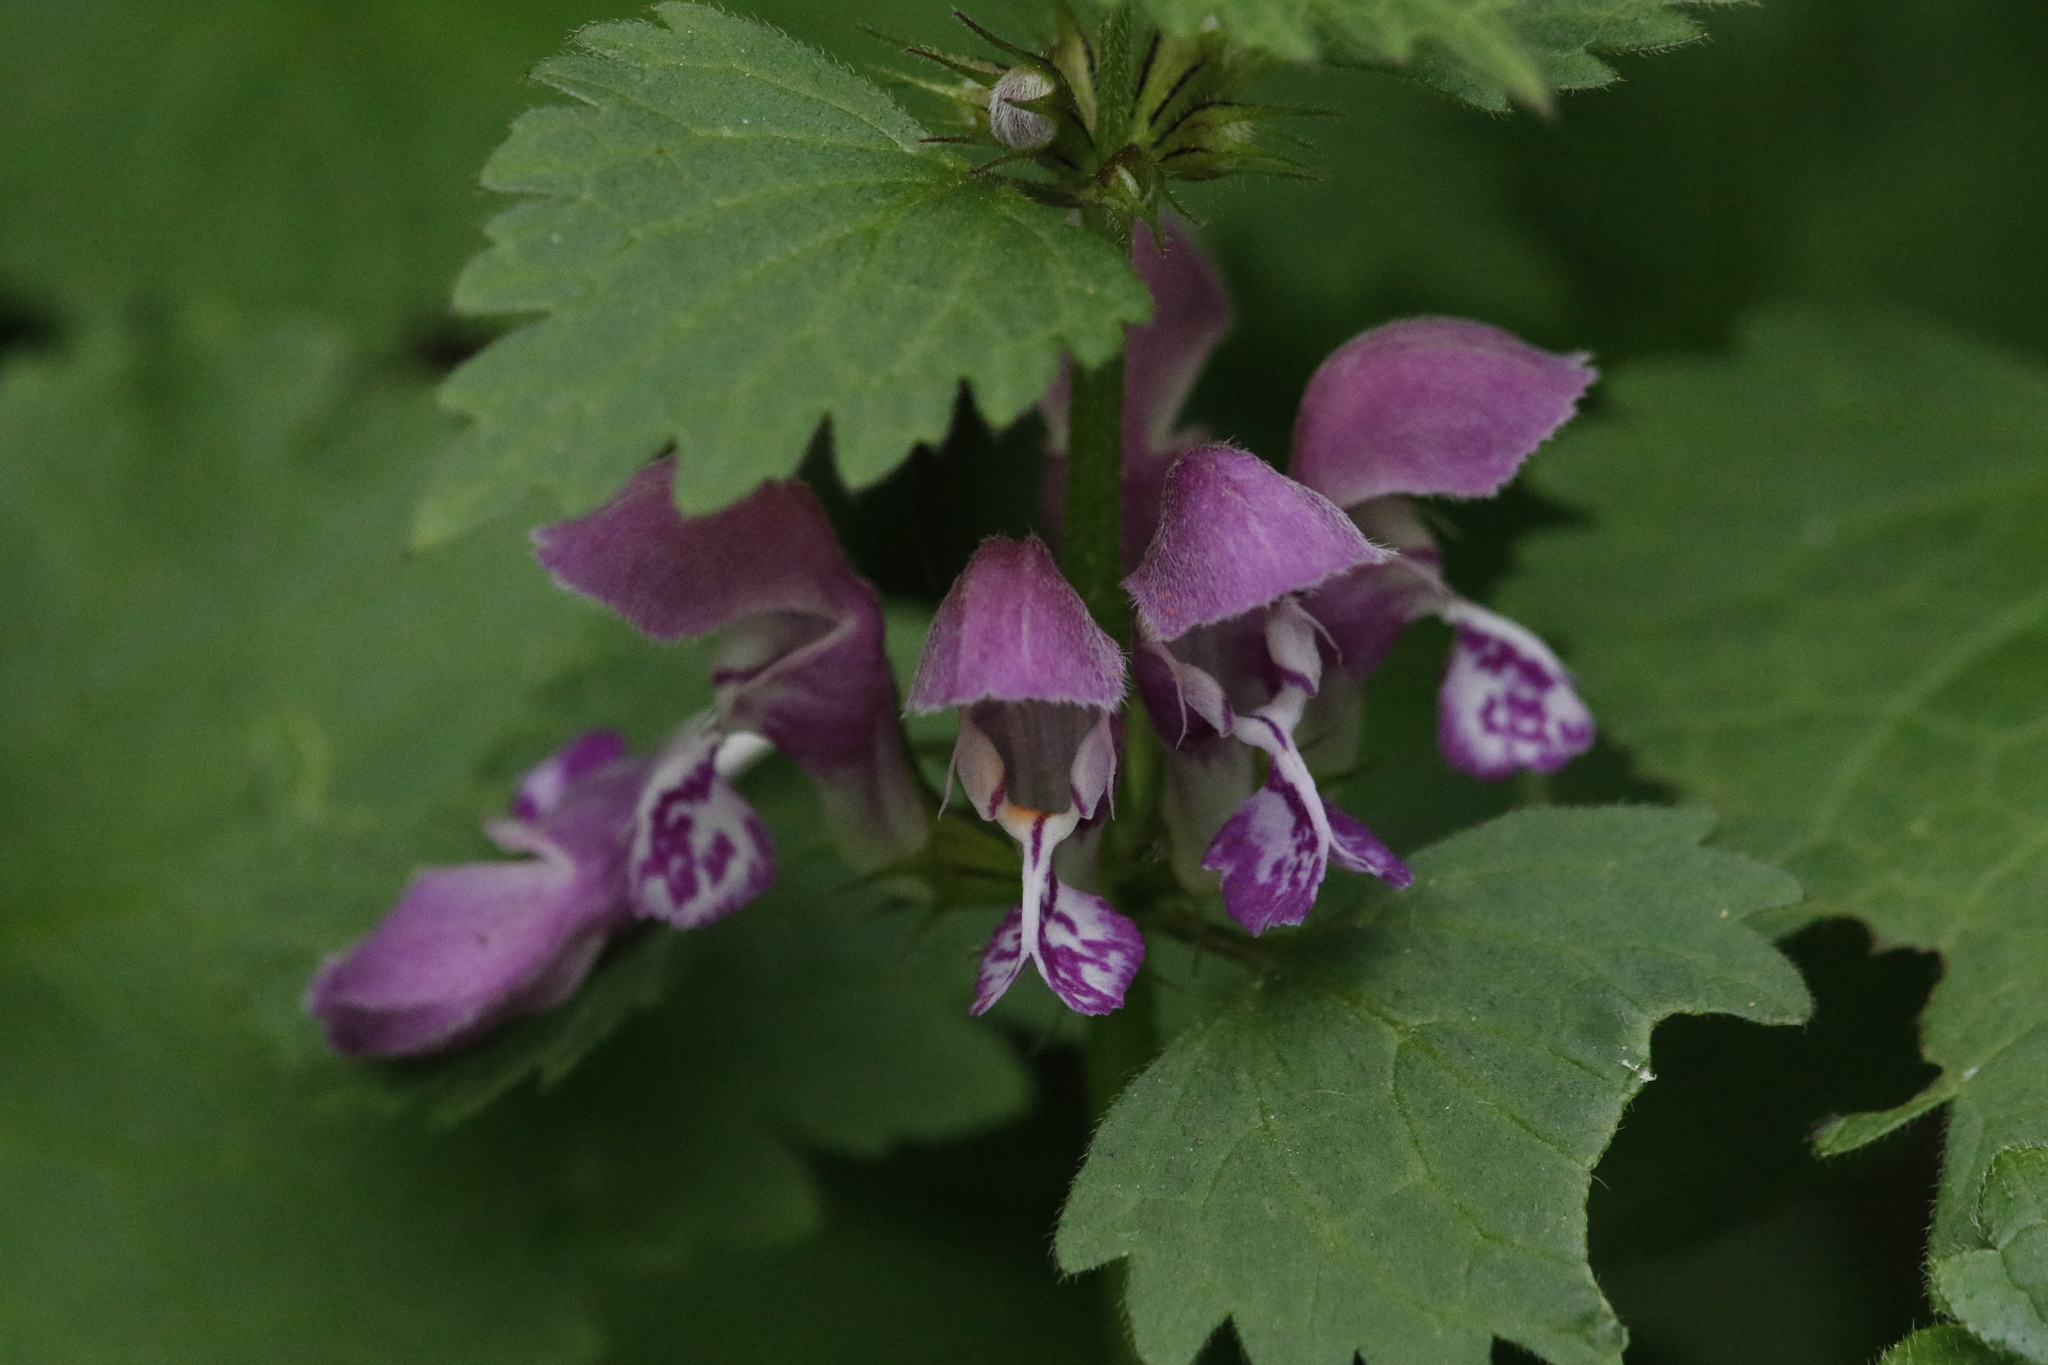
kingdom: Plantae
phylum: Tracheophyta
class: Magnoliopsida
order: Lamiales
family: Lamiaceae
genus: Lamium
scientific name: Lamium maculatum
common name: Spotted dead-nettle
